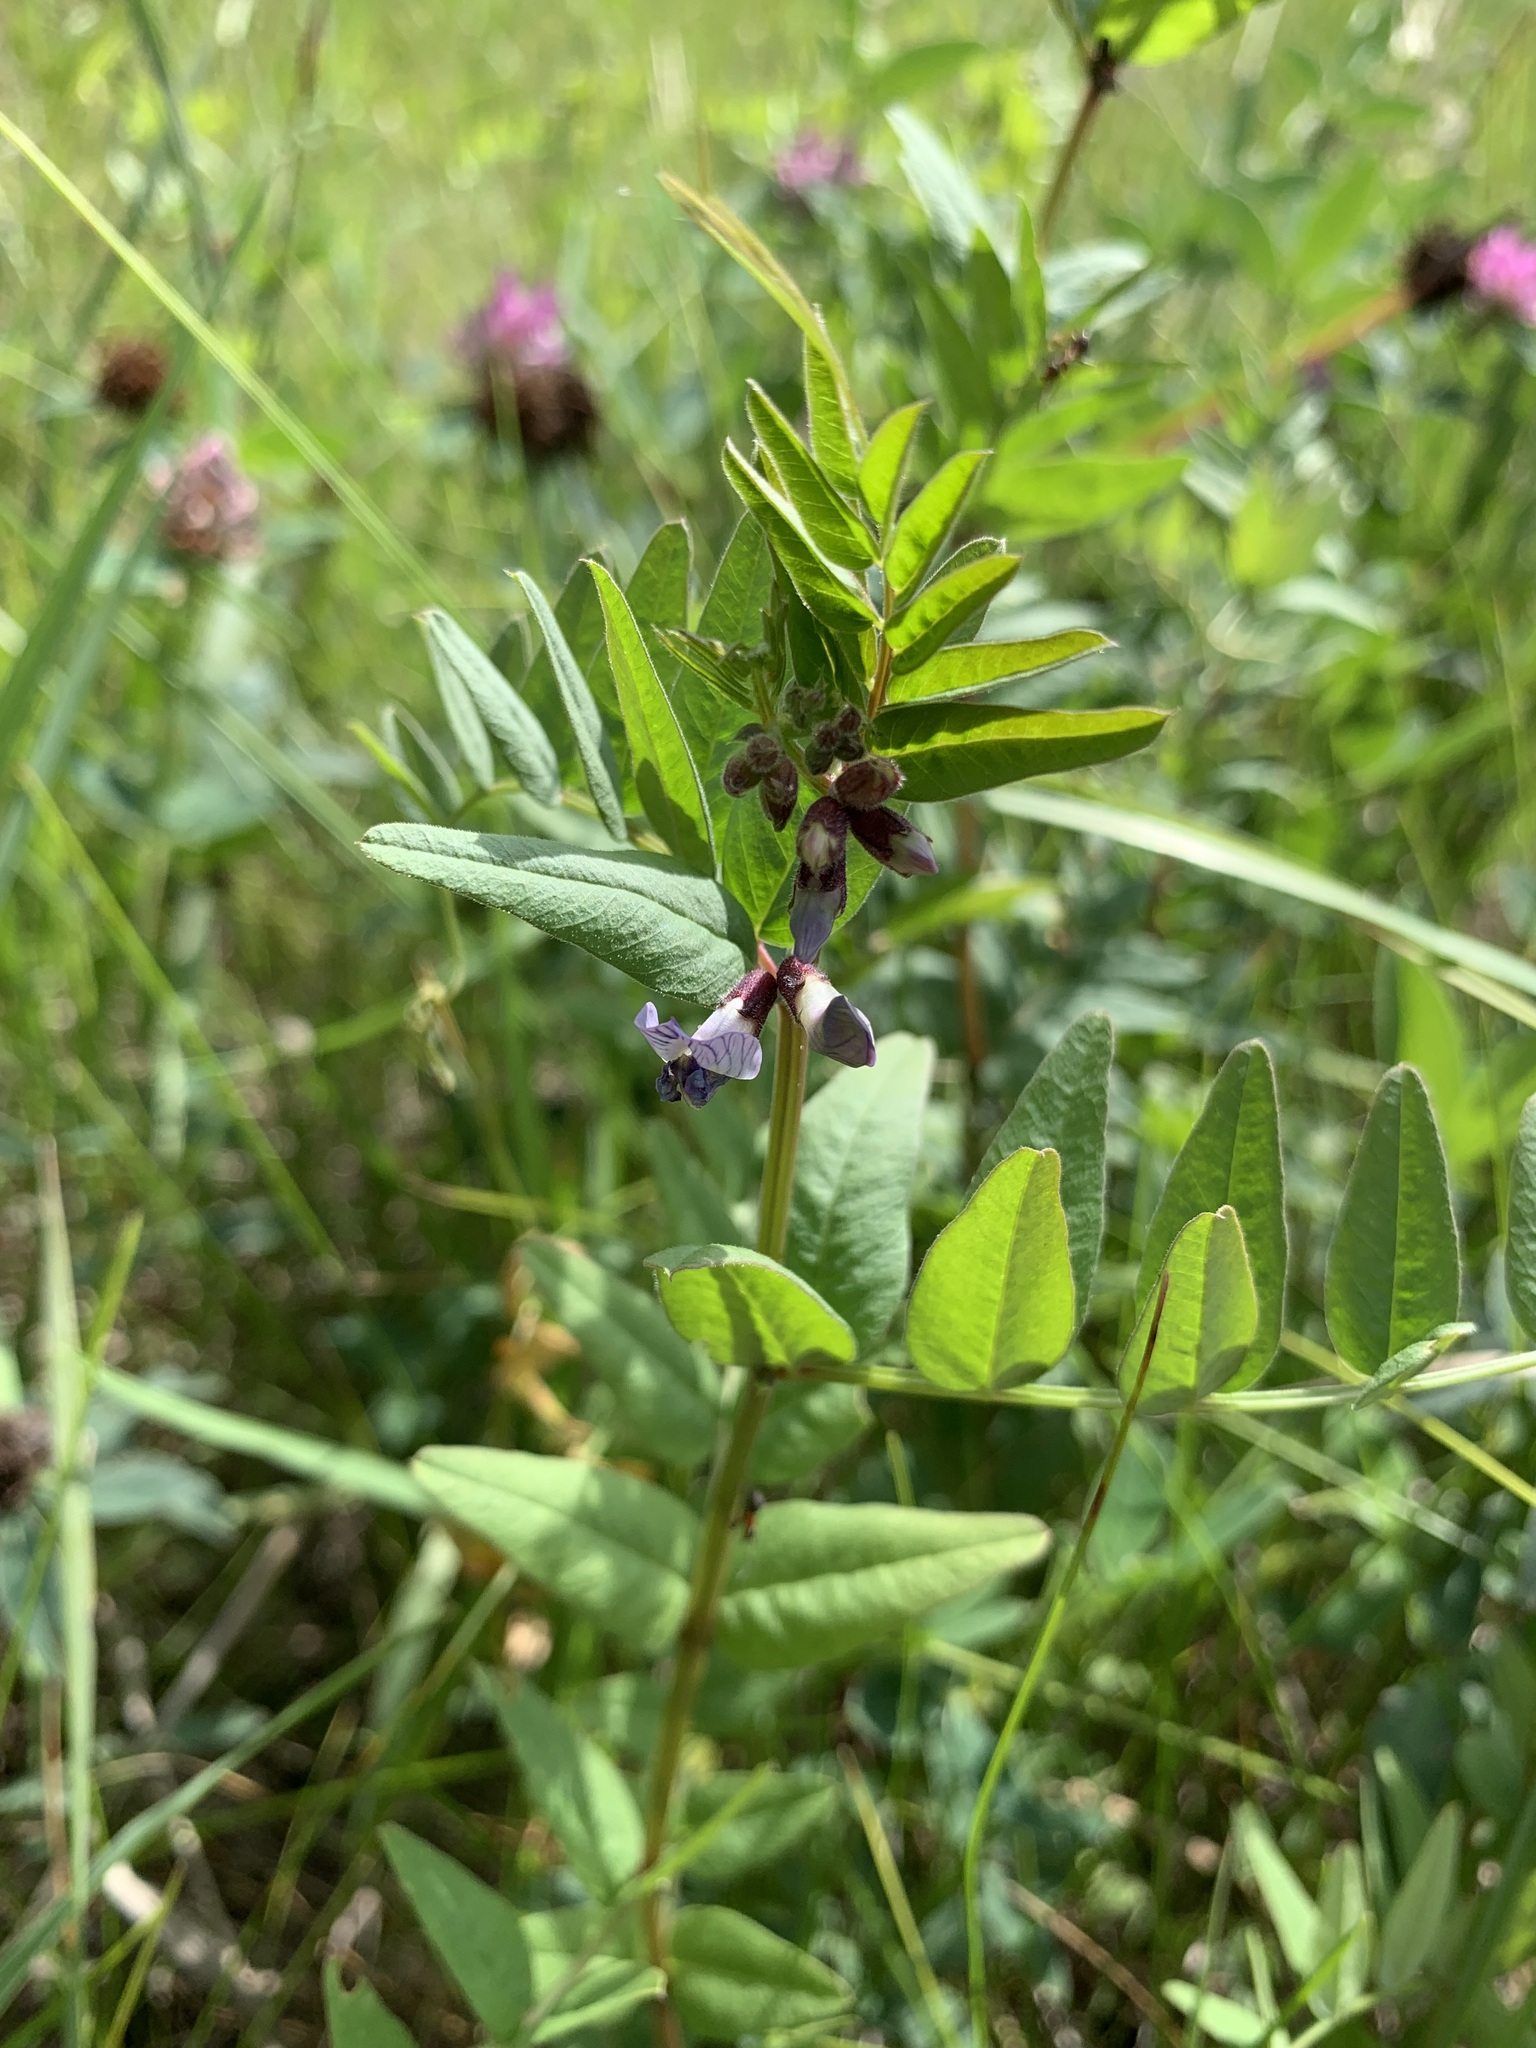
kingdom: Plantae
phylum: Tracheophyta
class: Magnoliopsida
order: Fabales
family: Fabaceae
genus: Vicia
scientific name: Vicia sepium
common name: Bush vetch
